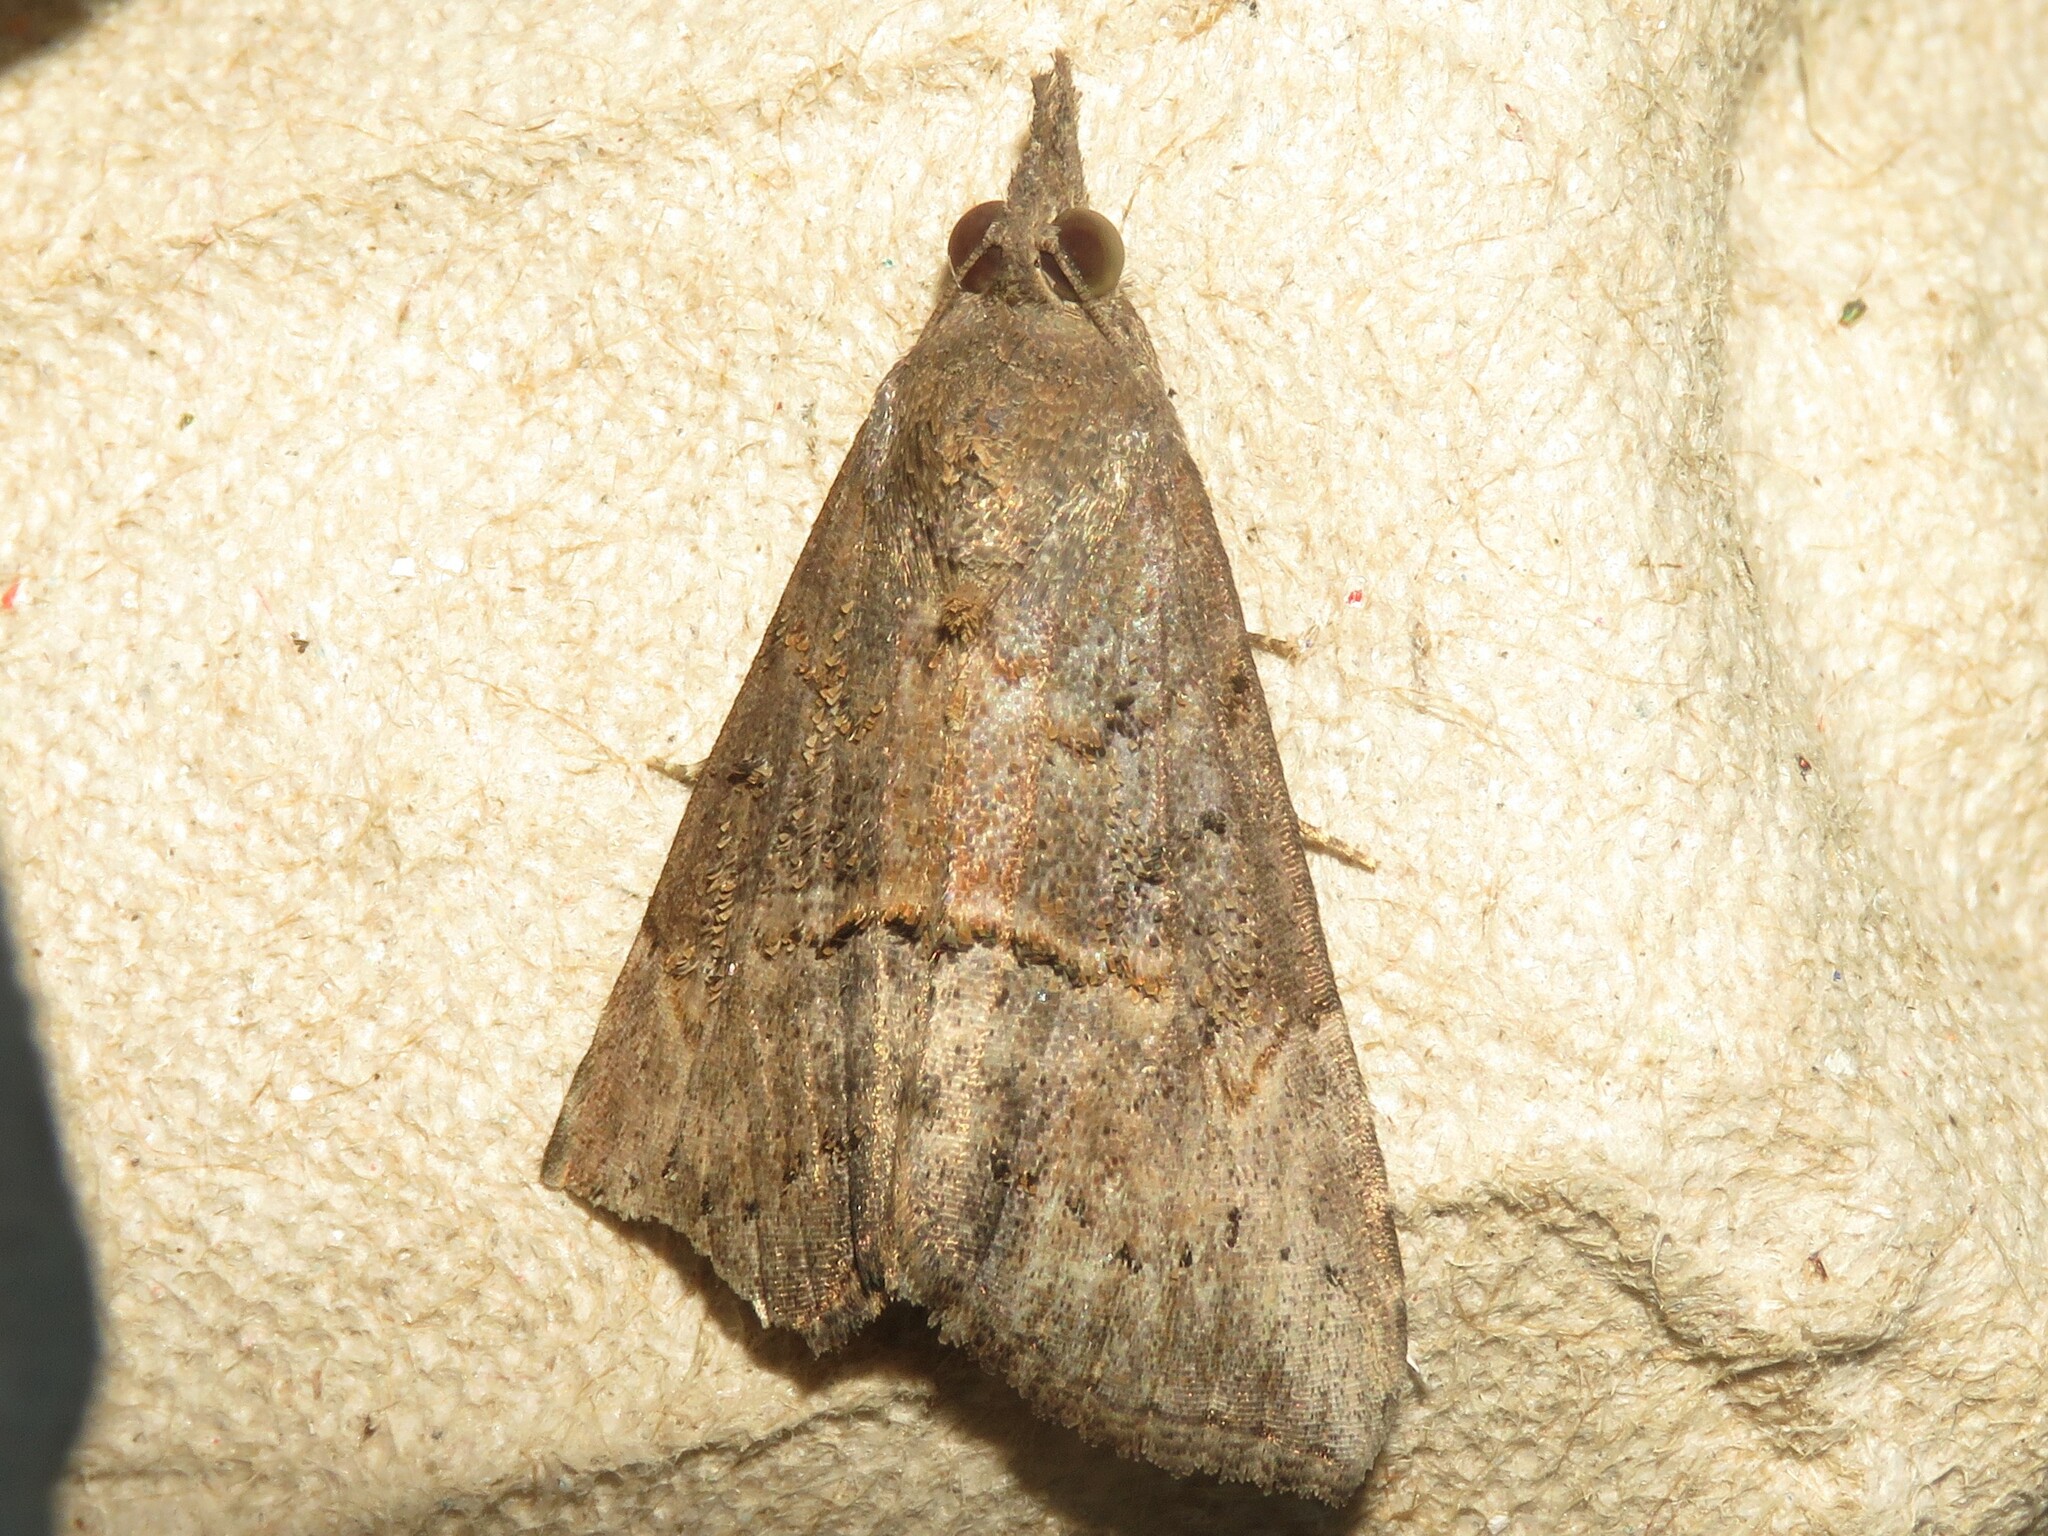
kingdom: Animalia
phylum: Arthropoda
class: Insecta
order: Lepidoptera
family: Erebidae
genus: Hypena
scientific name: Hypena scabra
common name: Green cloverworm
